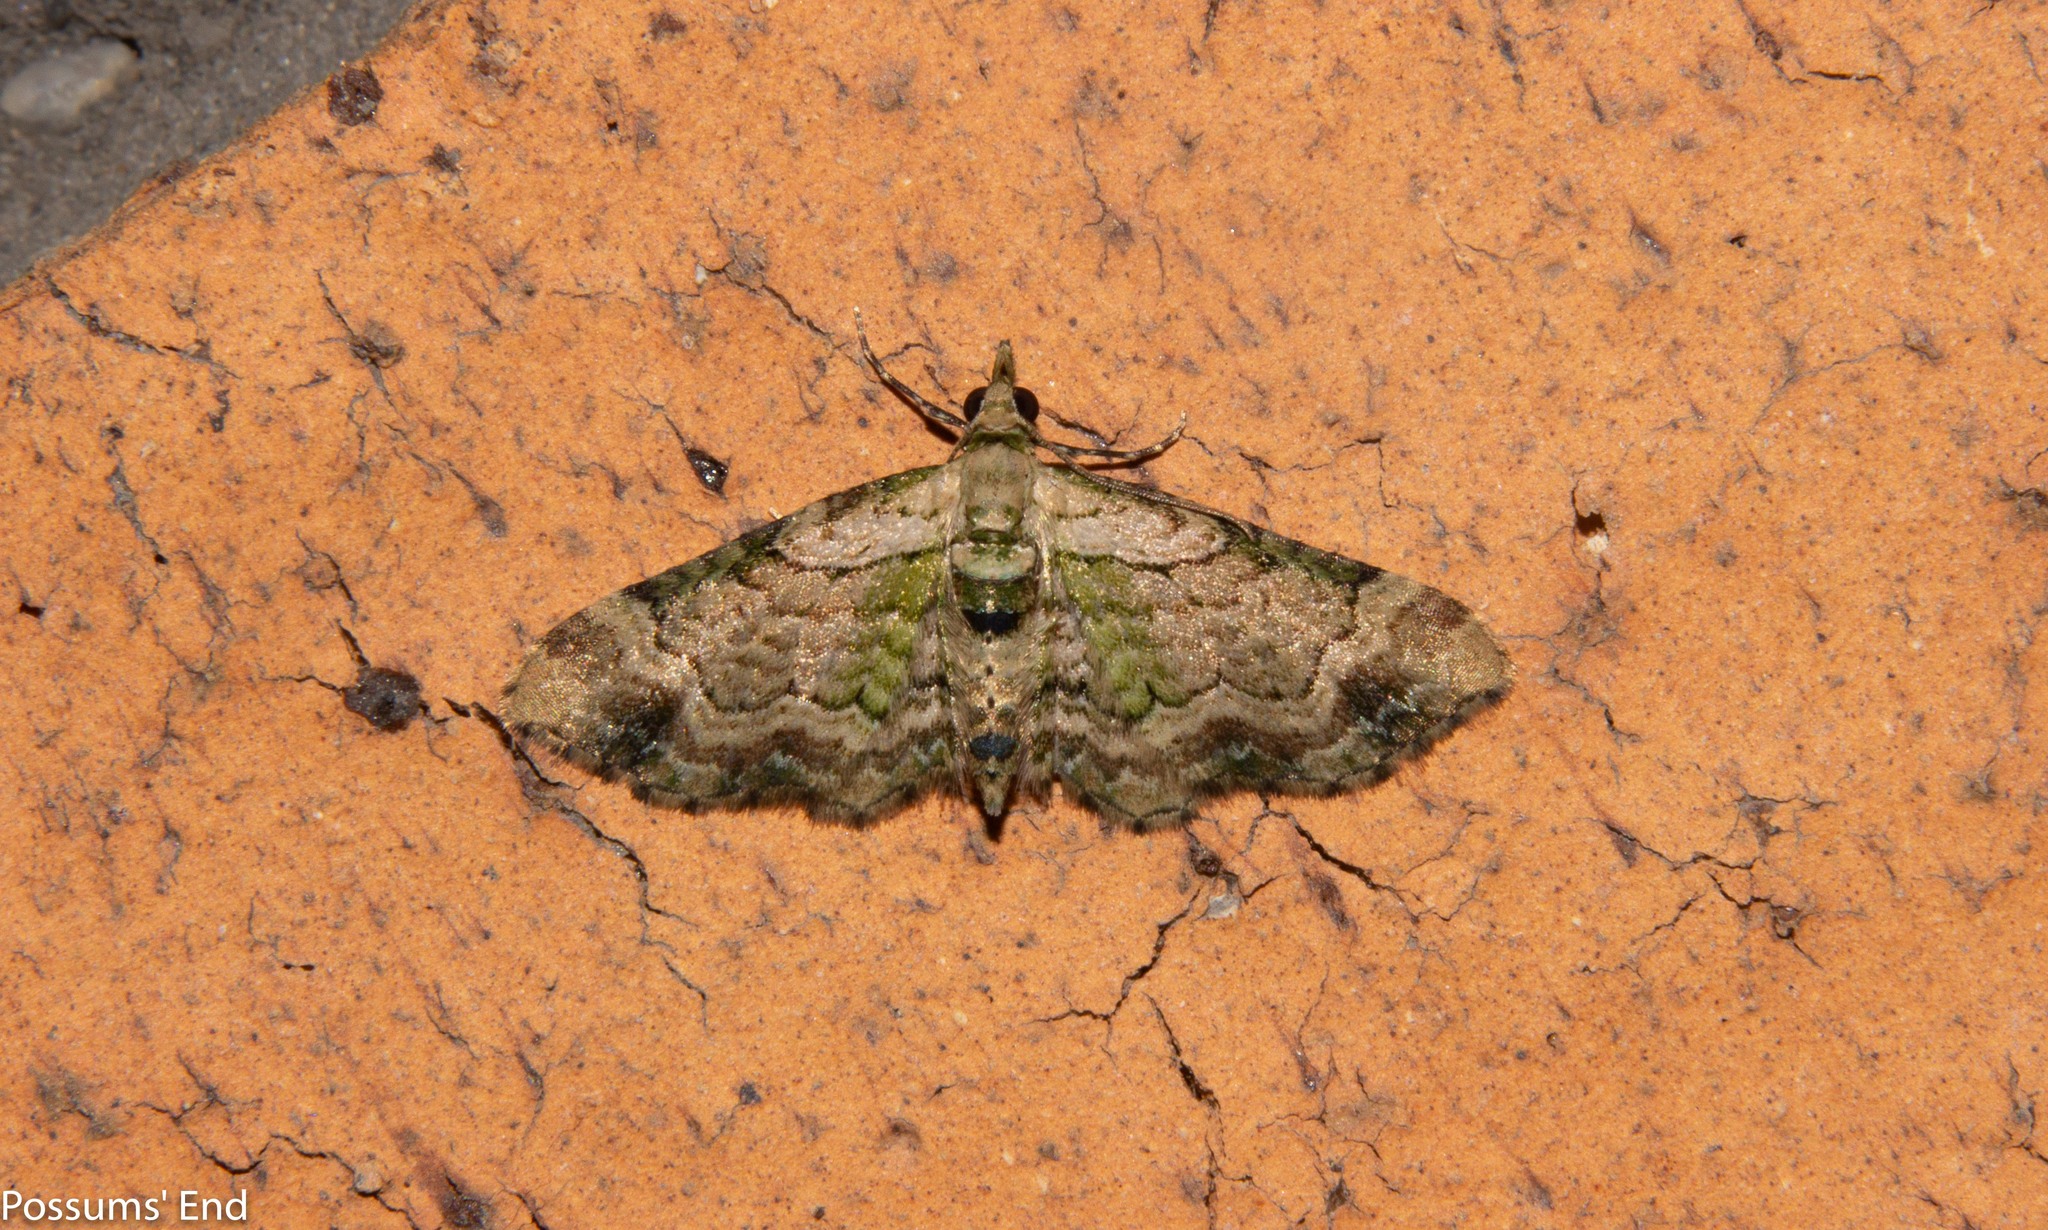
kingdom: Animalia
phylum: Arthropoda
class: Insecta
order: Lepidoptera
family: Geometridae
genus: Chloroclystis
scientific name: Chloroclystis
